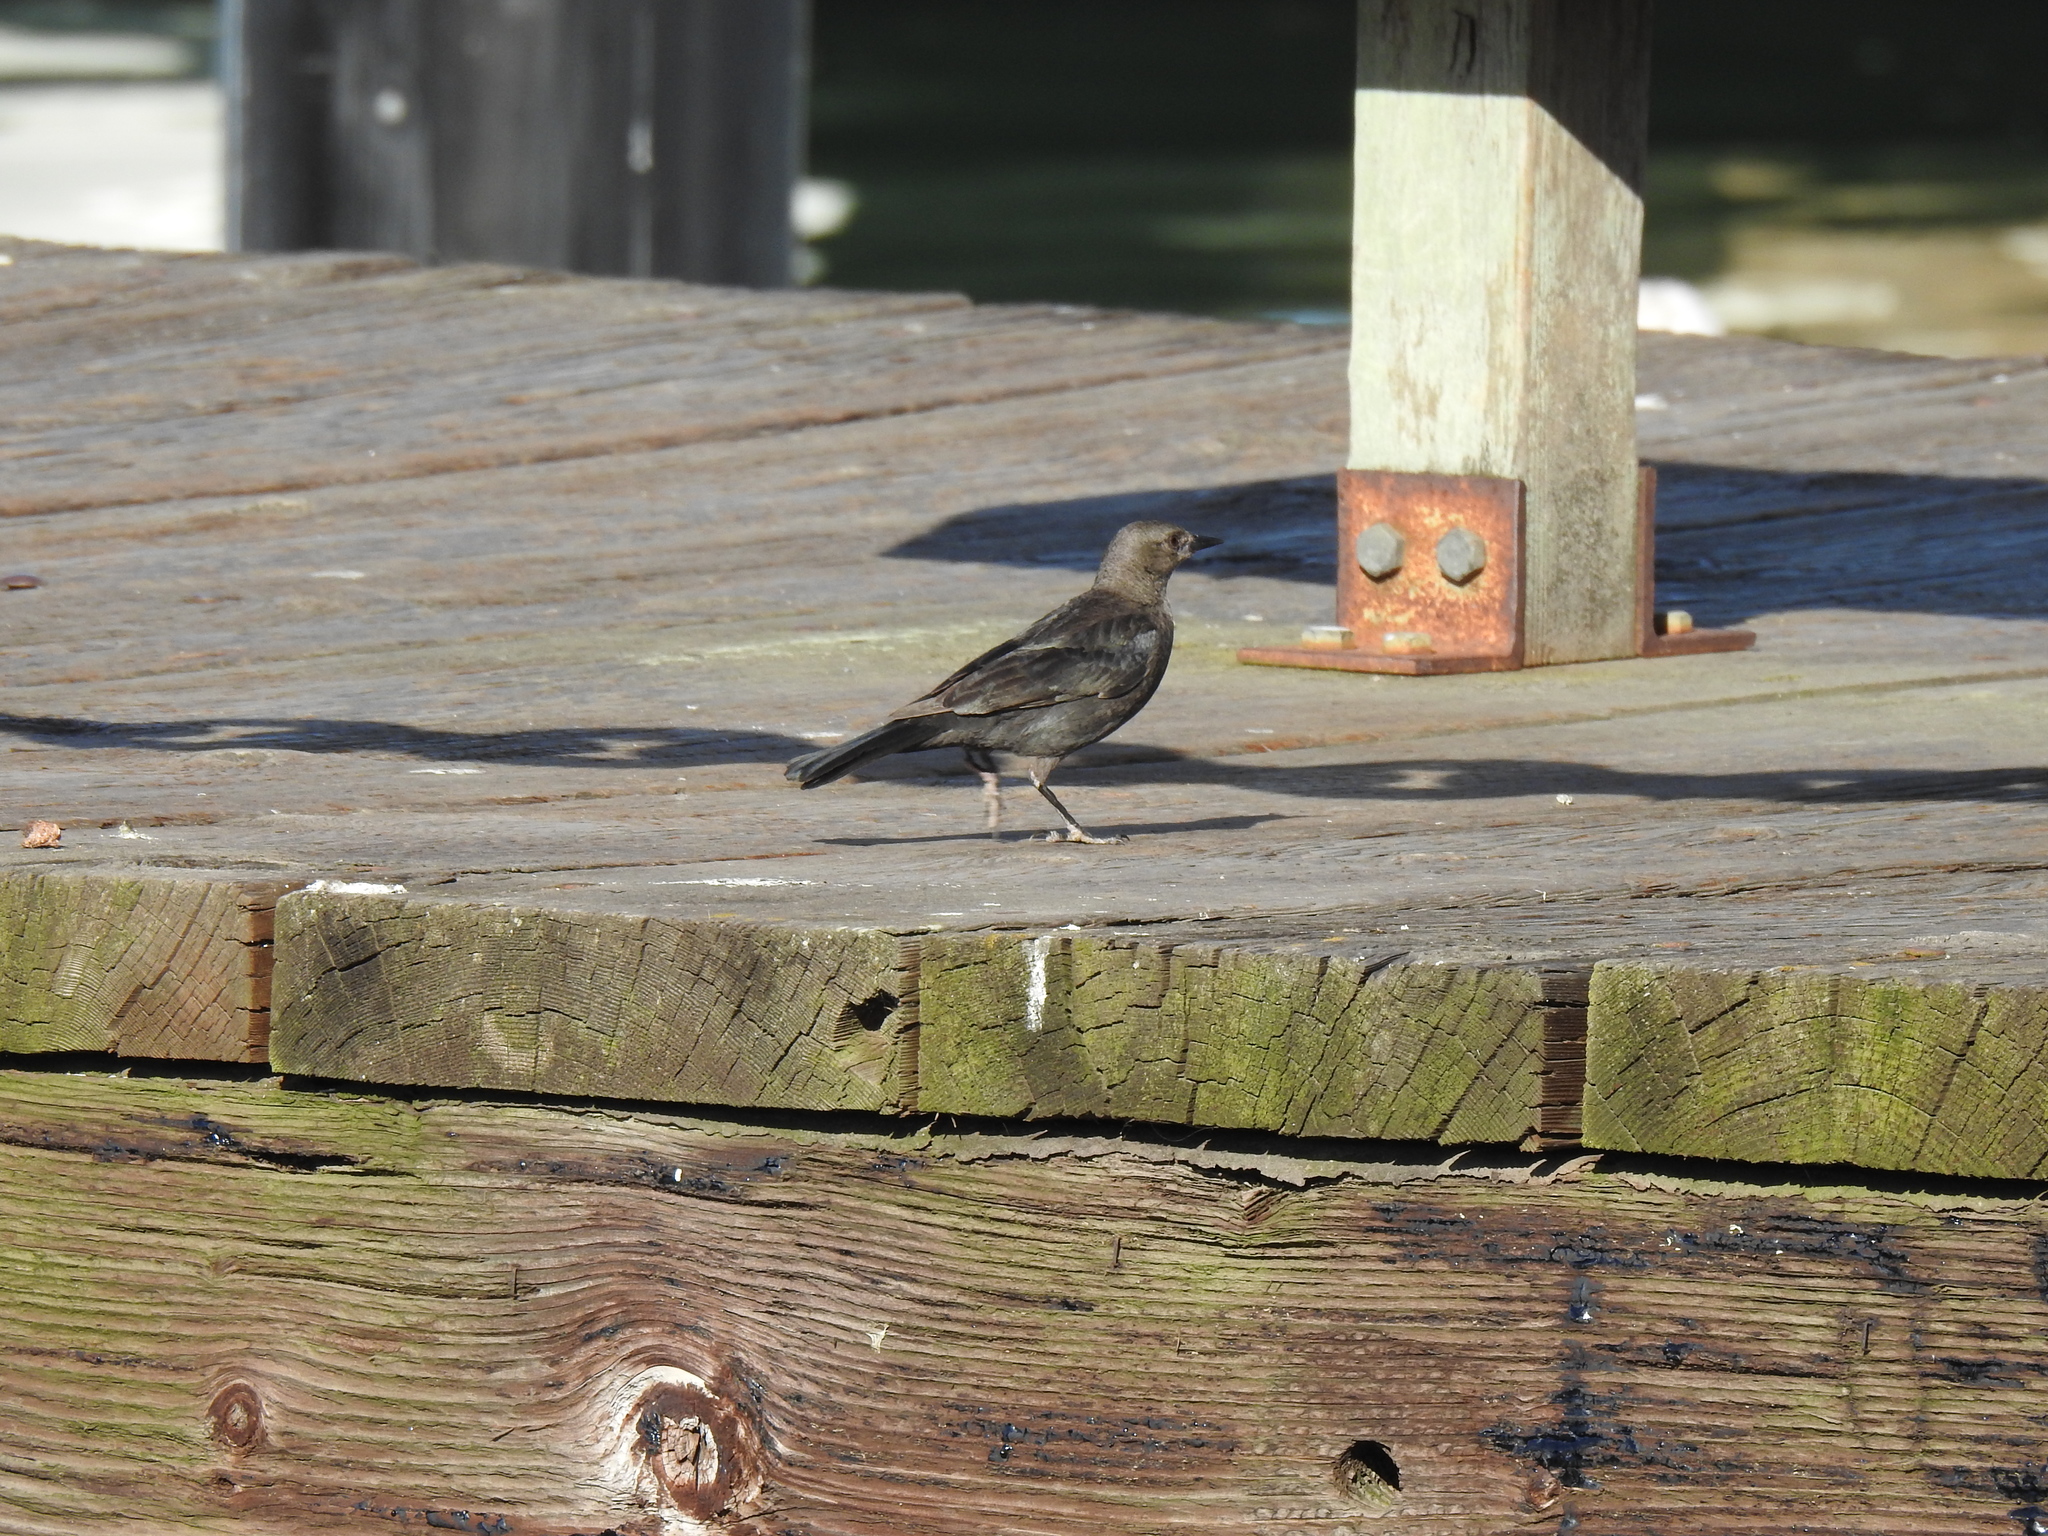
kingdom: Animalia
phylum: Chordata
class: Aves
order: Passeriformes
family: Icteridae
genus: Euphagus
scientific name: Euphagus cyanocephalus
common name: Brewer's blackbird
